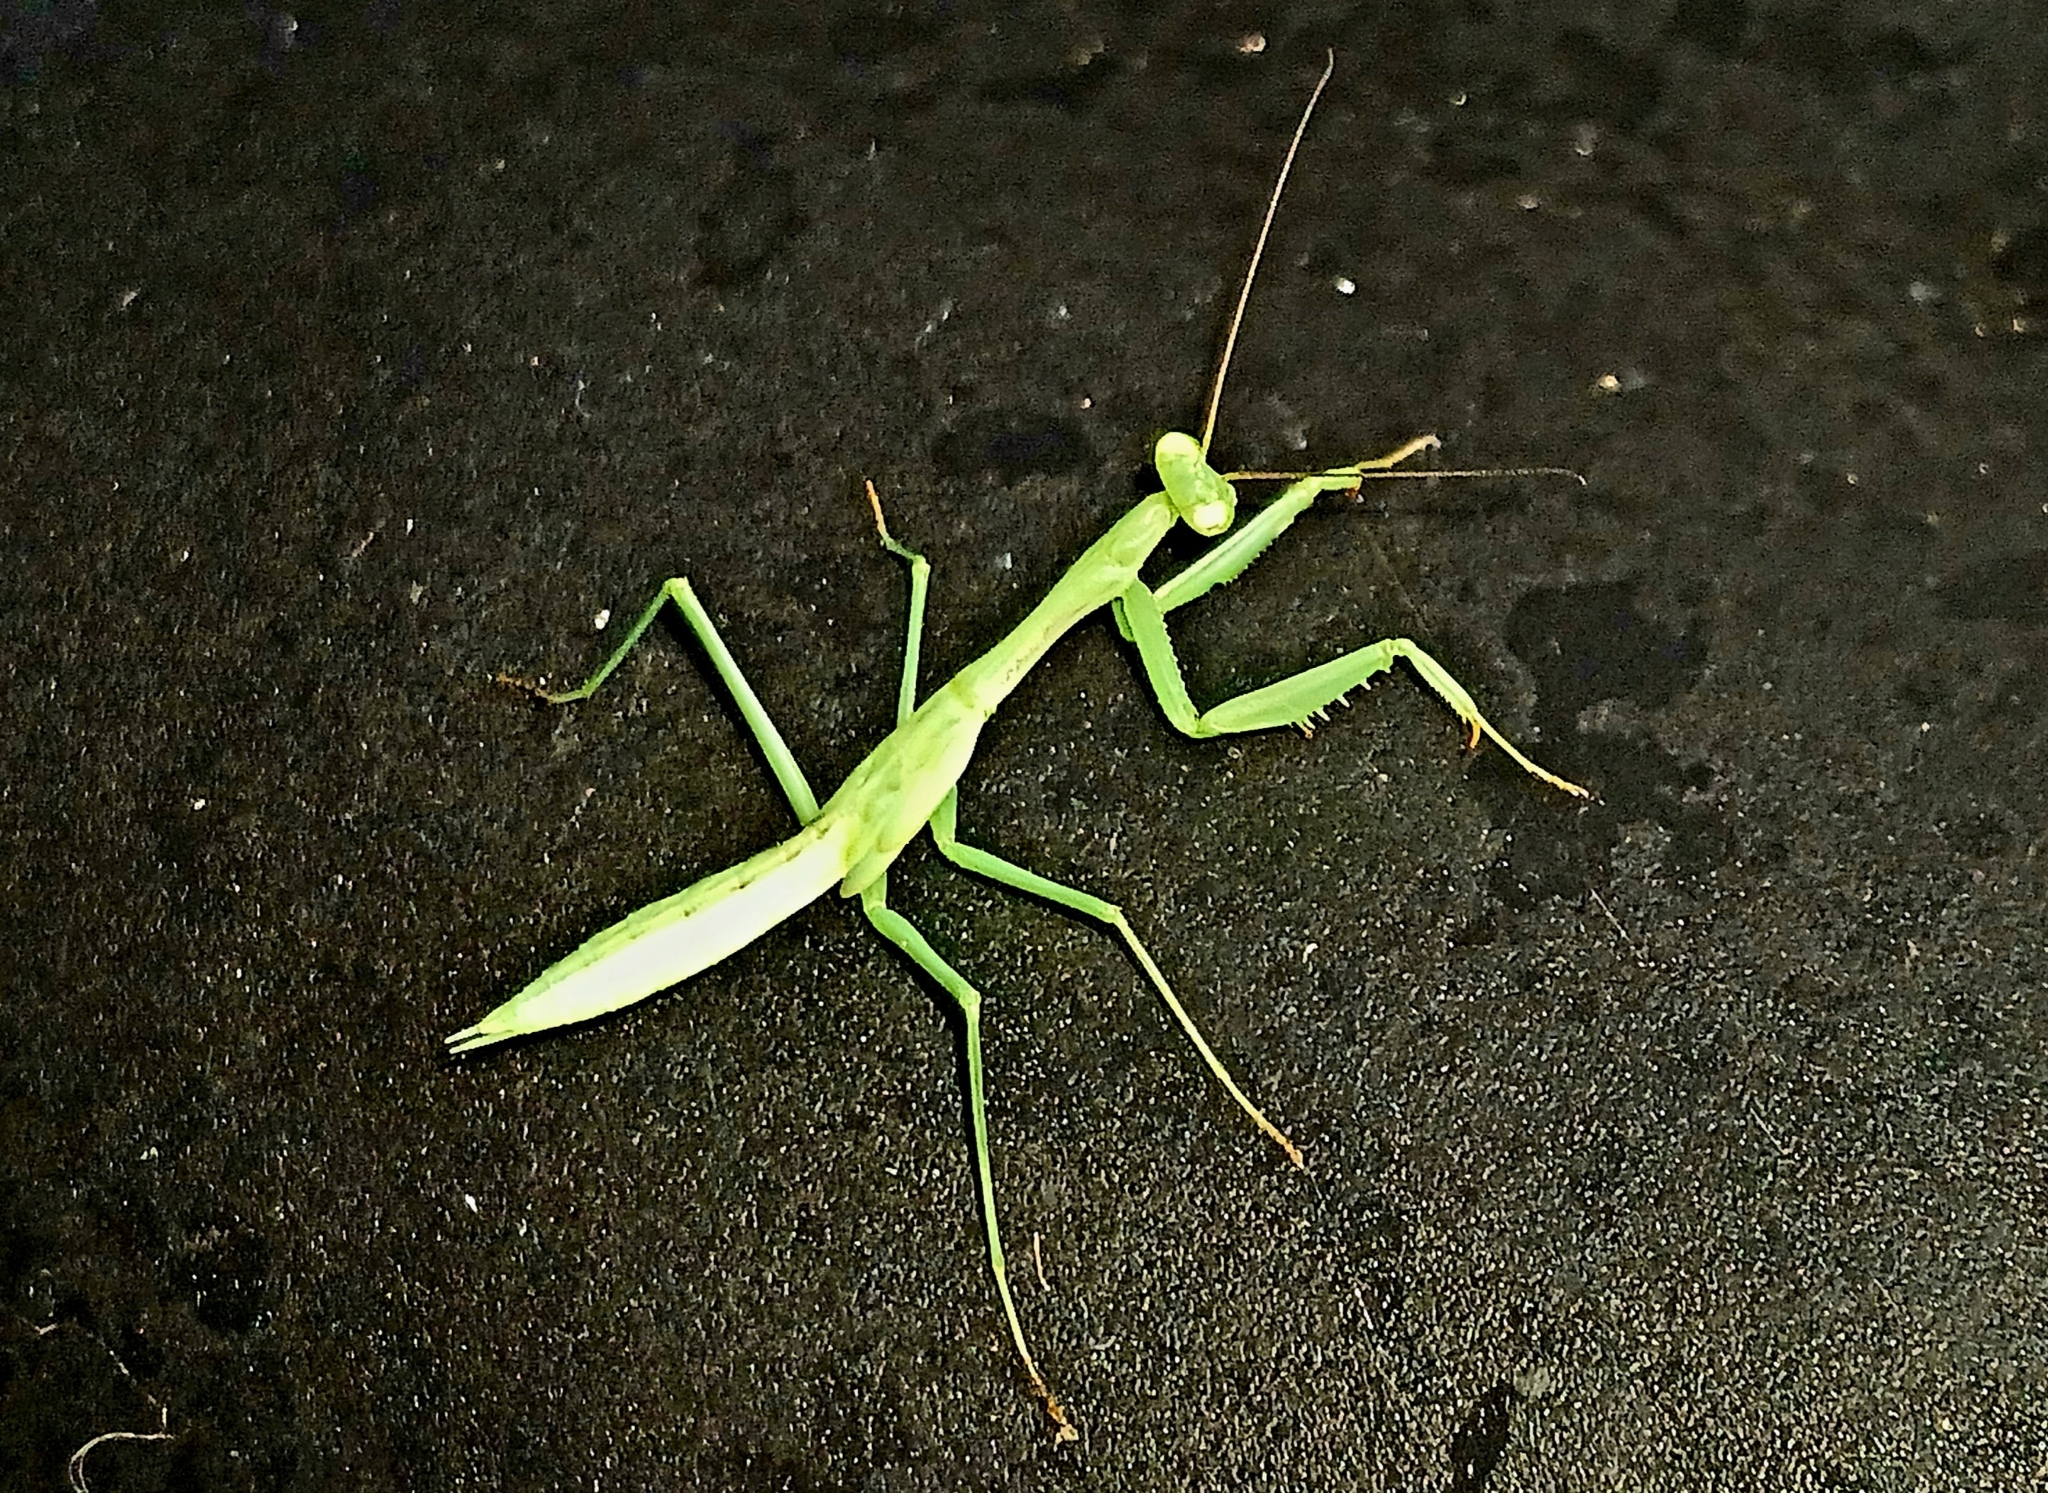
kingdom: Animalia
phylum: Arthropoda
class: Insecta
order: Mantodea
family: Miomantidae
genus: Miomantis
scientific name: Miomantis caffra
